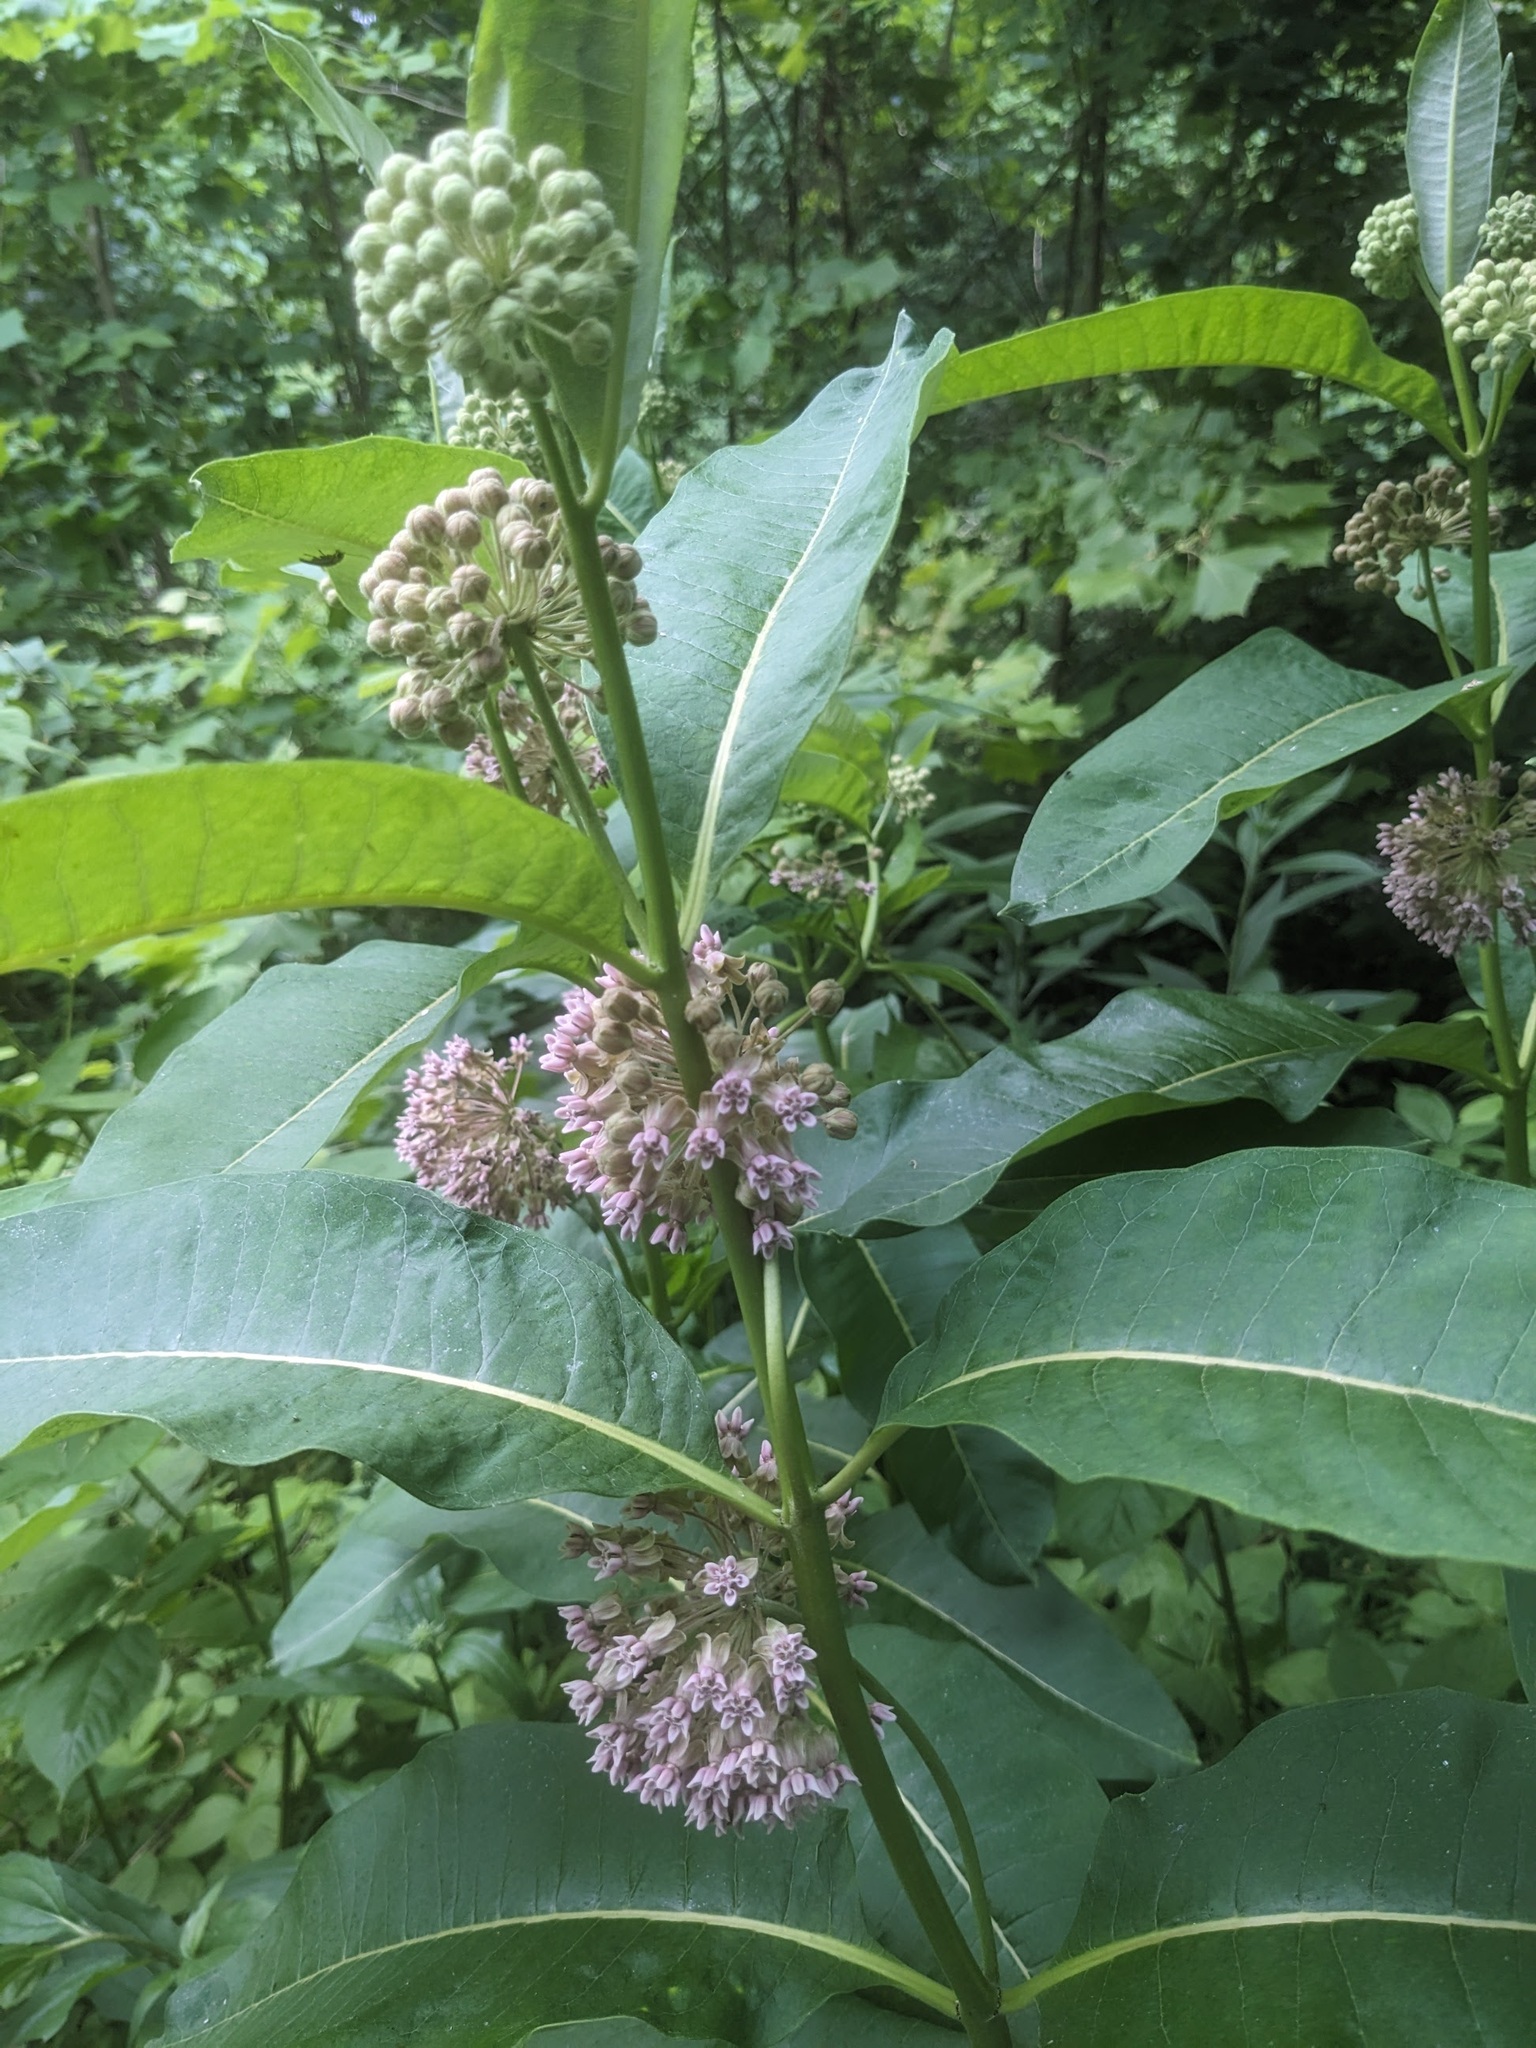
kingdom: Plantae
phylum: Tracheophyta
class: Magnoliopsida
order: Gentianales
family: Apocynaceae
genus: Asclepias
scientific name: Asclepias syriaca
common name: Common milkweed
